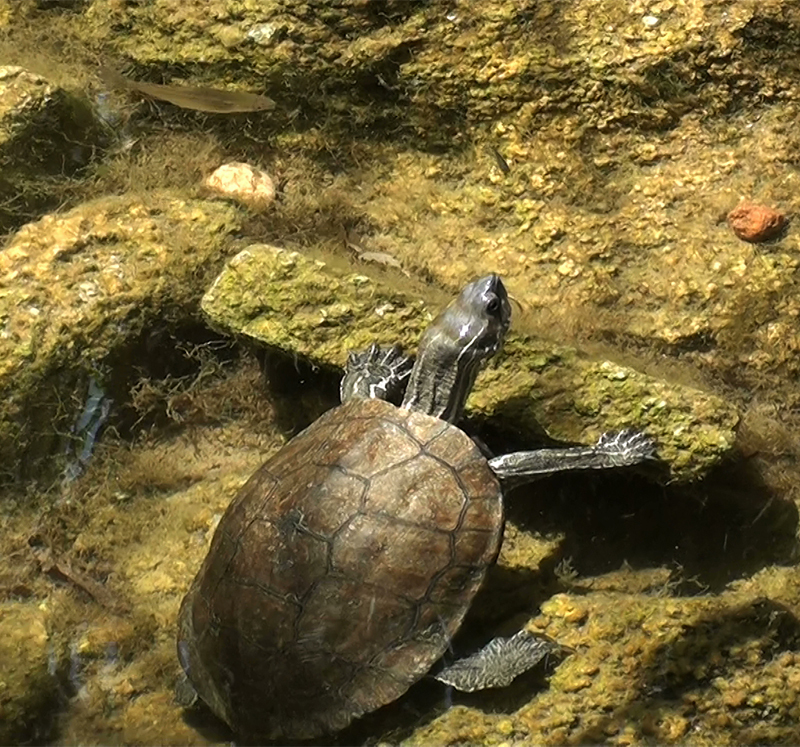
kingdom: Animalia
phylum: Chordata
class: Testudines
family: Geoemydidae
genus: Mauremys
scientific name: Mauremys rivulata
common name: Western caspian turtle
